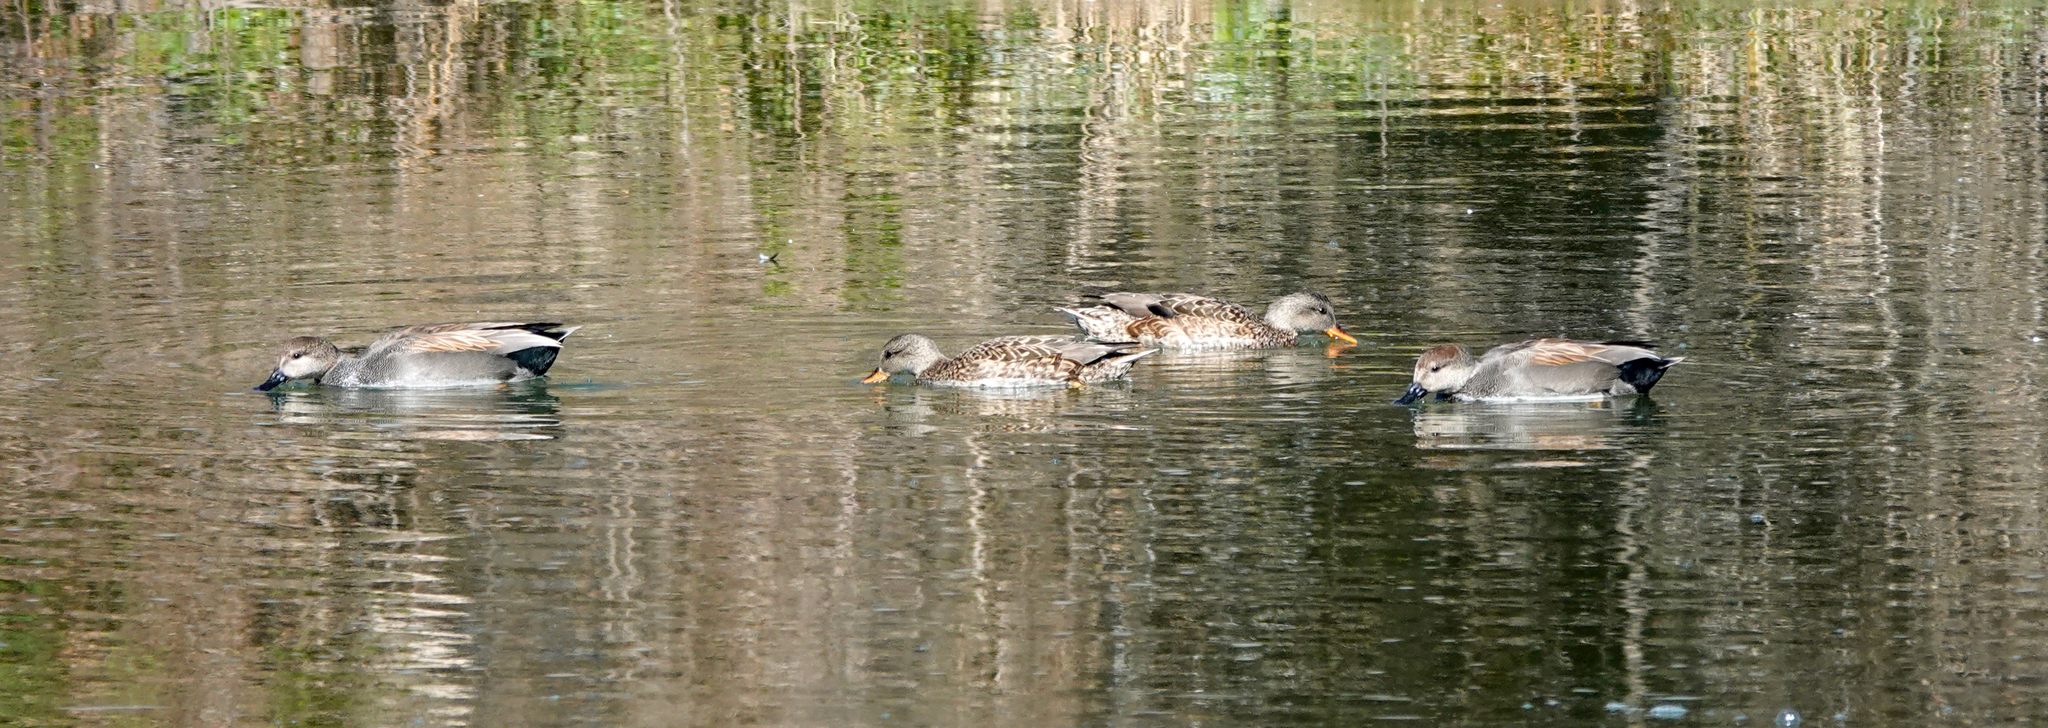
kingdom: Animalia
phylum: Chordata
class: Aves
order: Anseriformes
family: Anatidae
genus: Mareca
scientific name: Mareca strepera
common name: Gadwall
